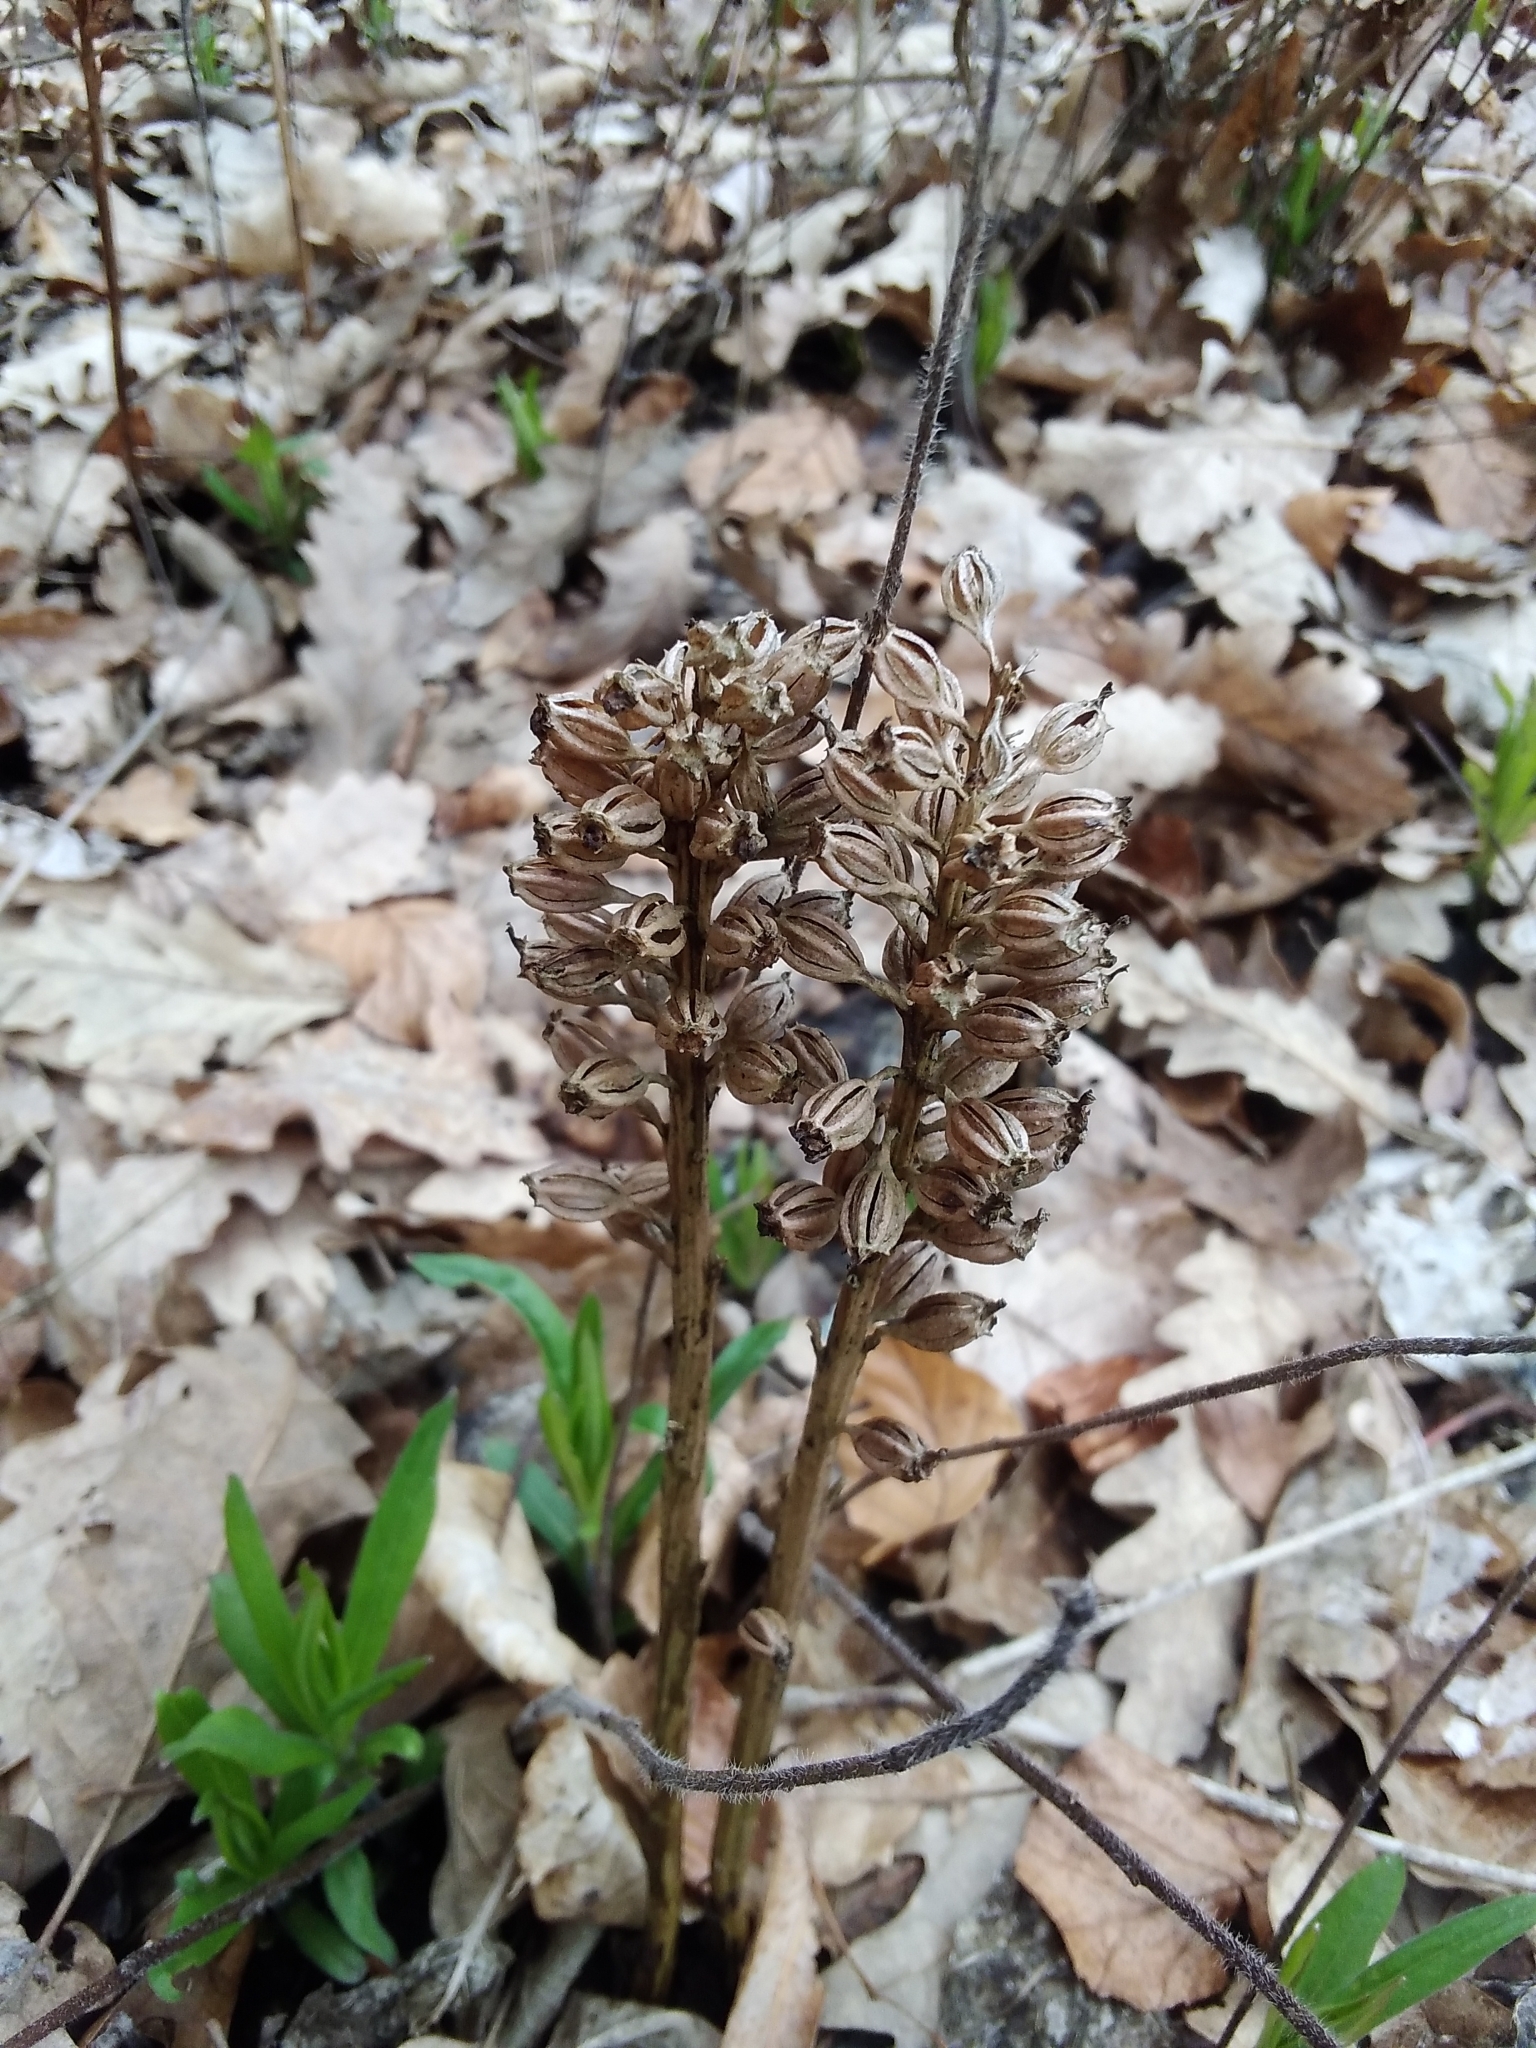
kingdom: Plantae
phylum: Tracheophyta
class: Liliopsida
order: Asparagales
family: Orchidaceae
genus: Neottia
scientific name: Neottia nidus-avis
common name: Bird's-nest orchid
